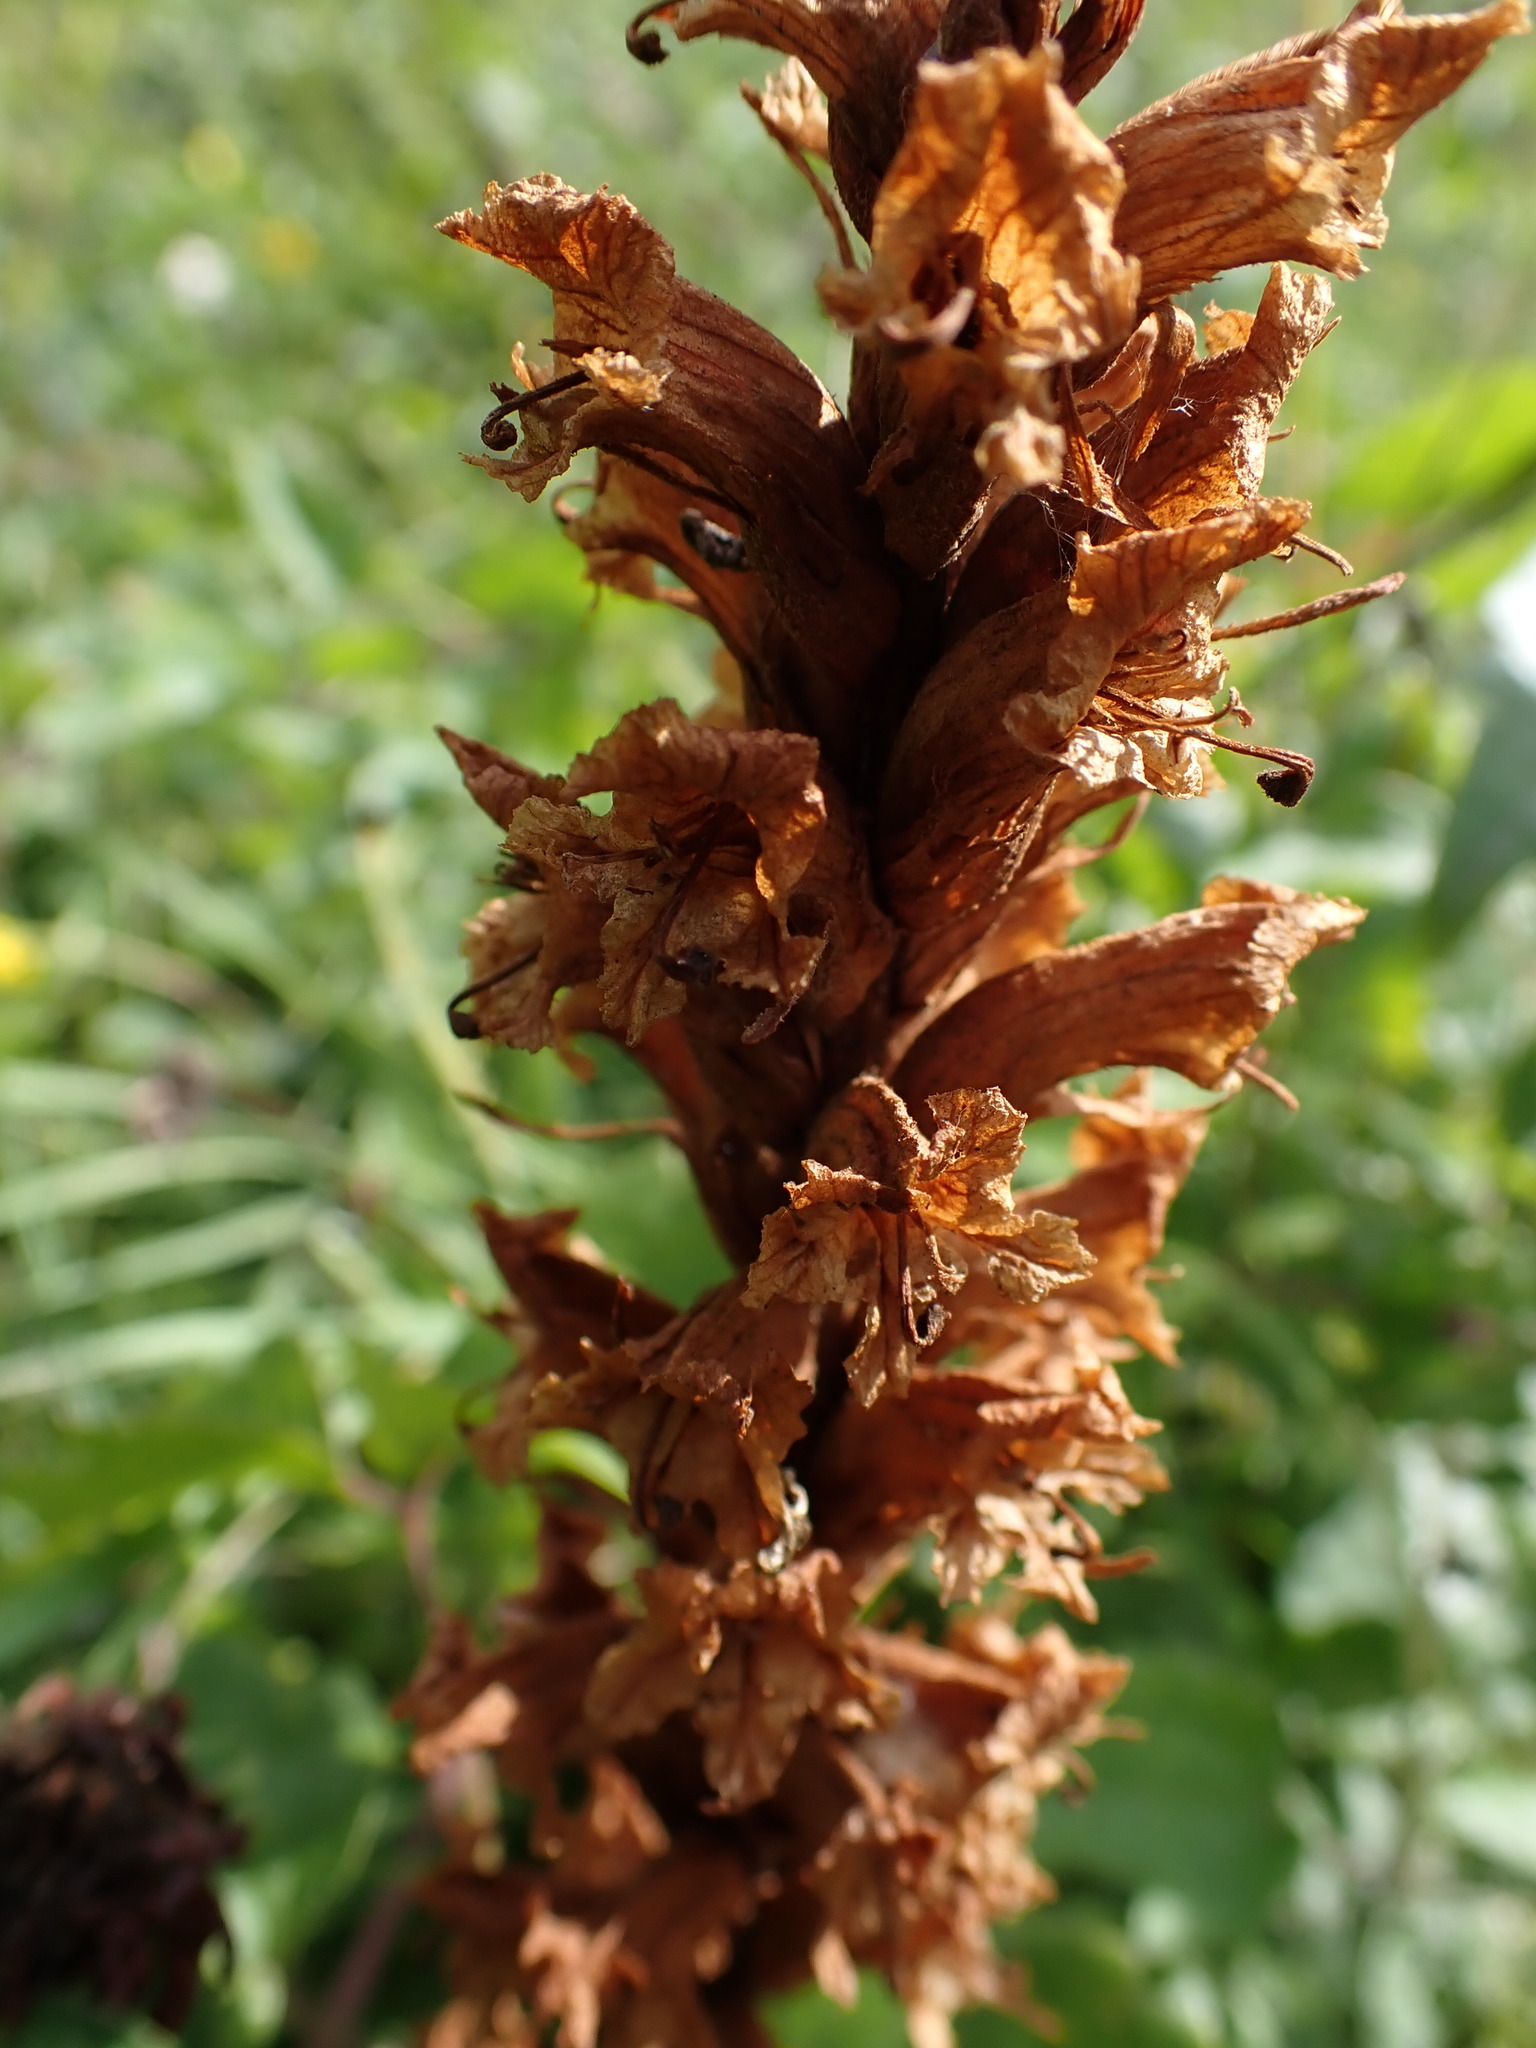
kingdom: Plantae
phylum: Tracheophyta
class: Magnoliopsida
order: Lamiales
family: Orobanchaceae
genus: Orobanche
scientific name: Orobanche elatior
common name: Knapweed broomrape
